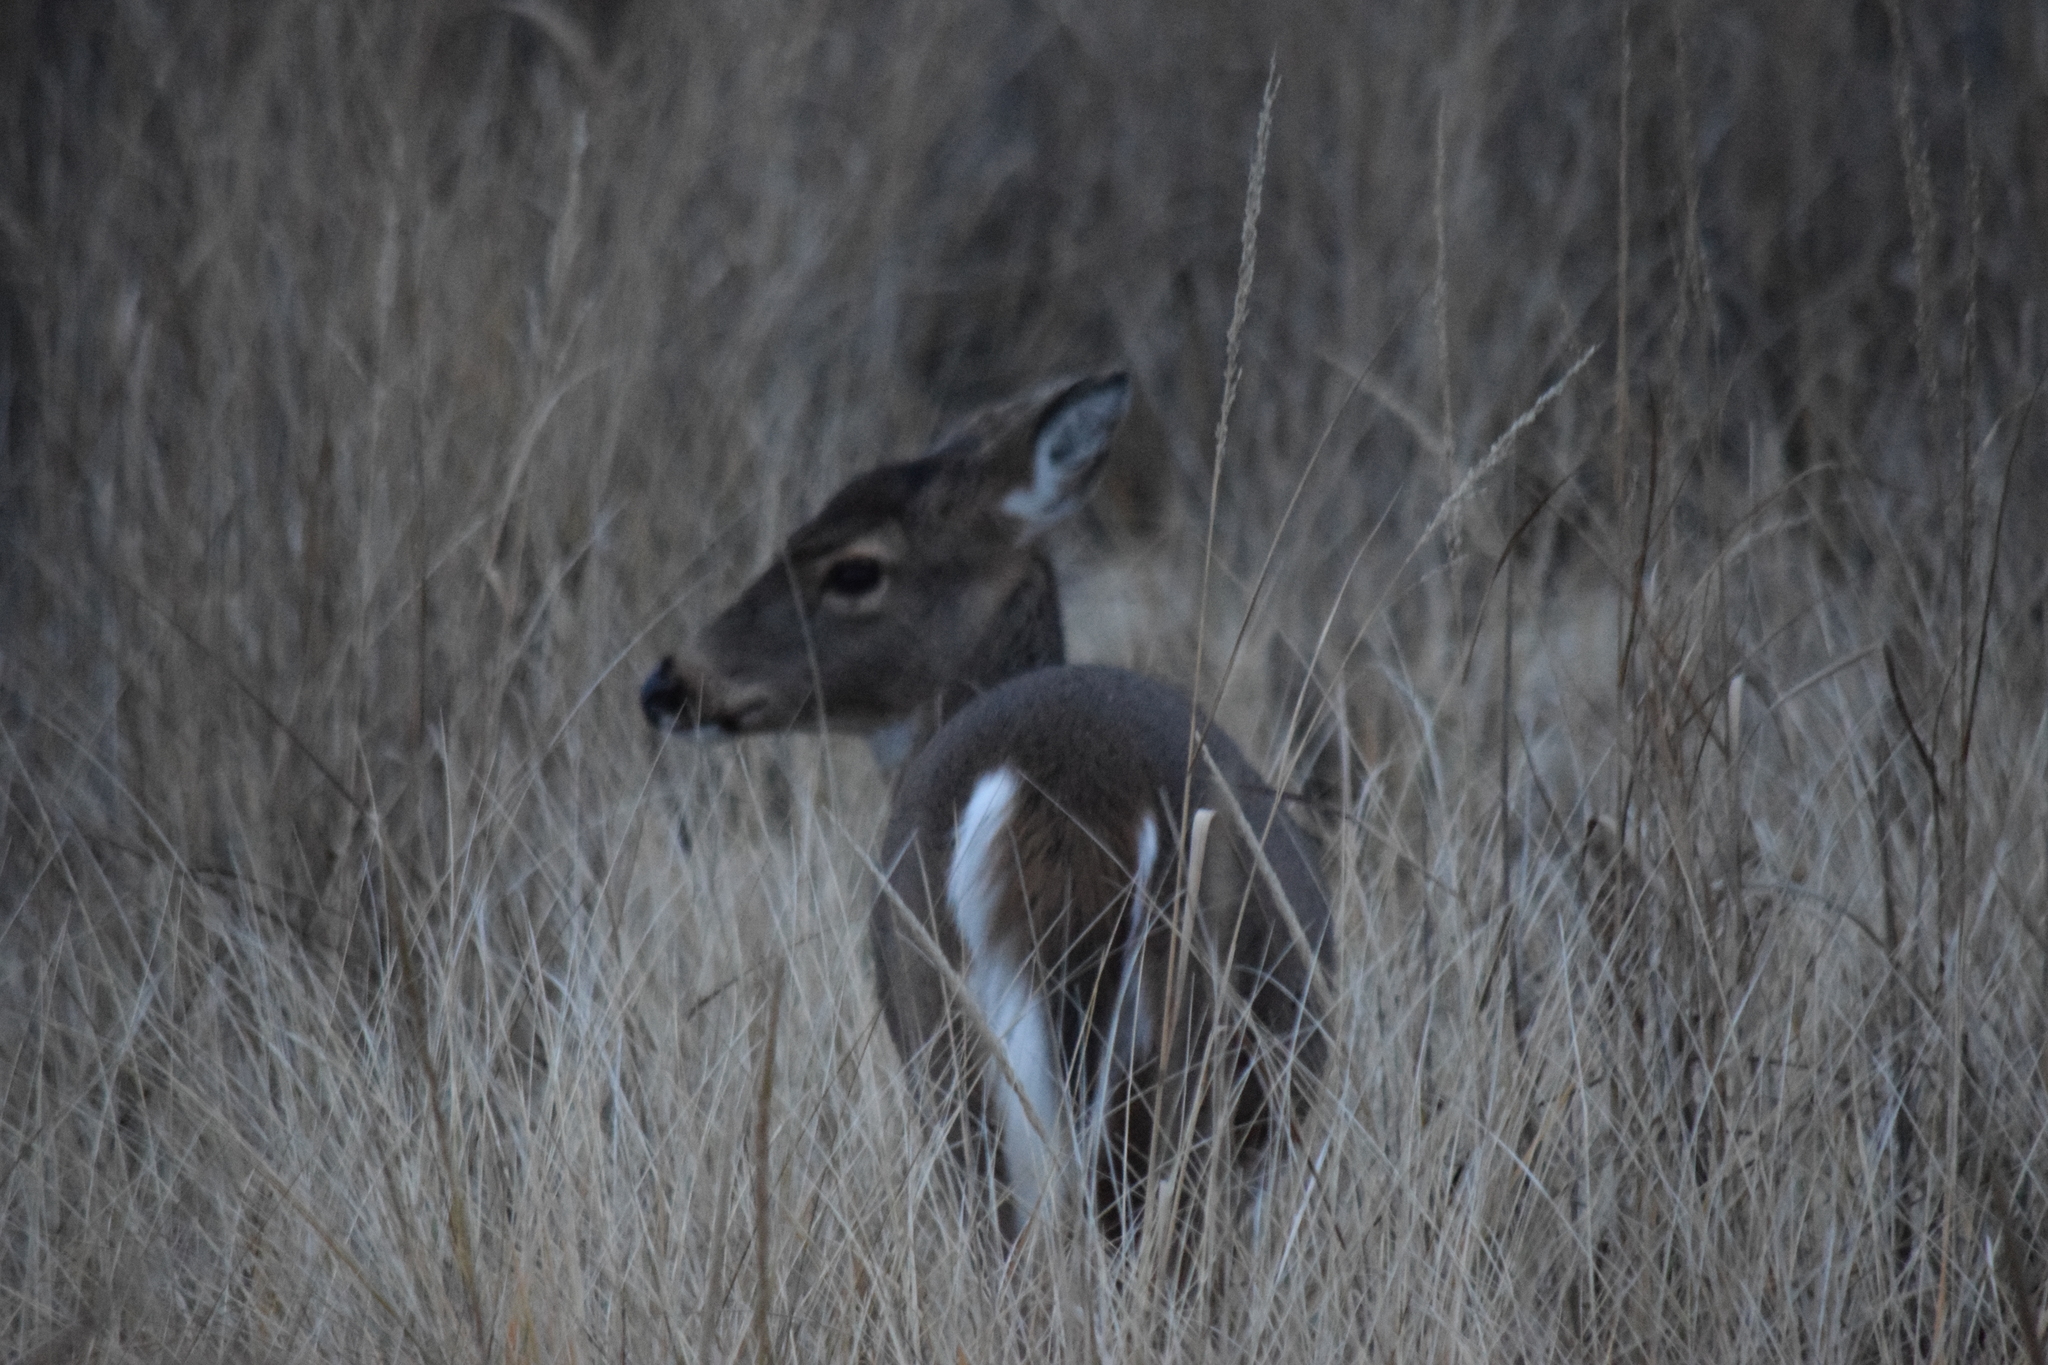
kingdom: Animalia
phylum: Chordata
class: Mammalia
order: Artiodactyla
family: Cervidae
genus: Odocoileus
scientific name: Odocoileus virginianus
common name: White-tailed deer
